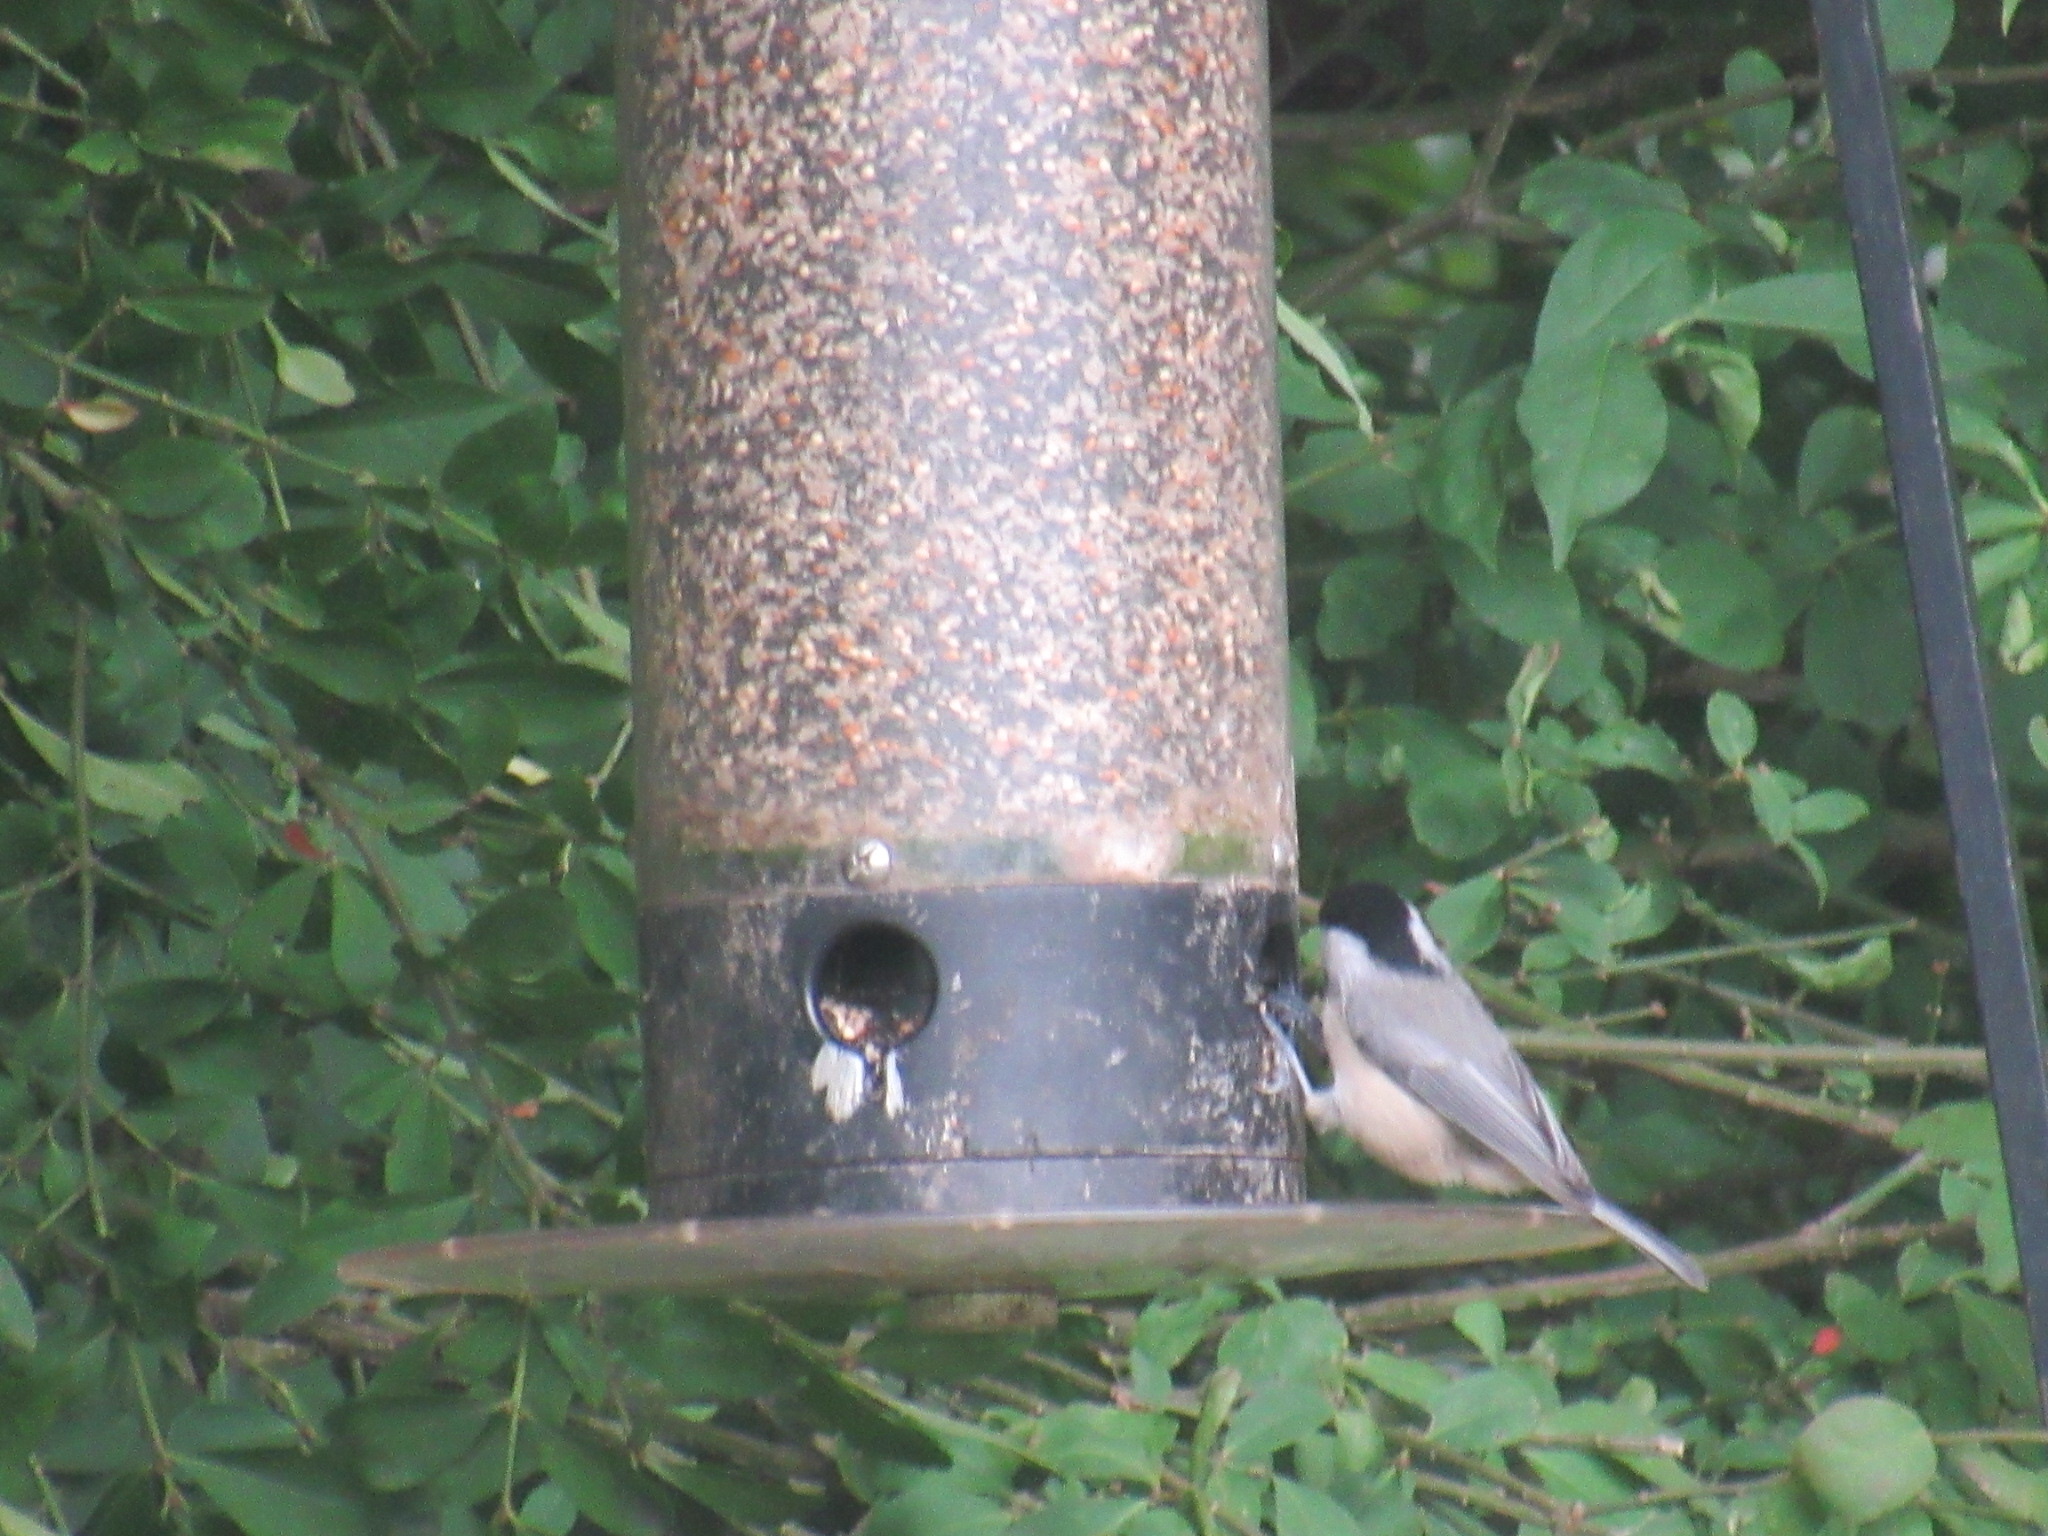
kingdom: Animalia
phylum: Chordata
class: Aves
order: Passeriformes
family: Paridae
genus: Poecile
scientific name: Poecile carolinensis
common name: Carolina chickadee
